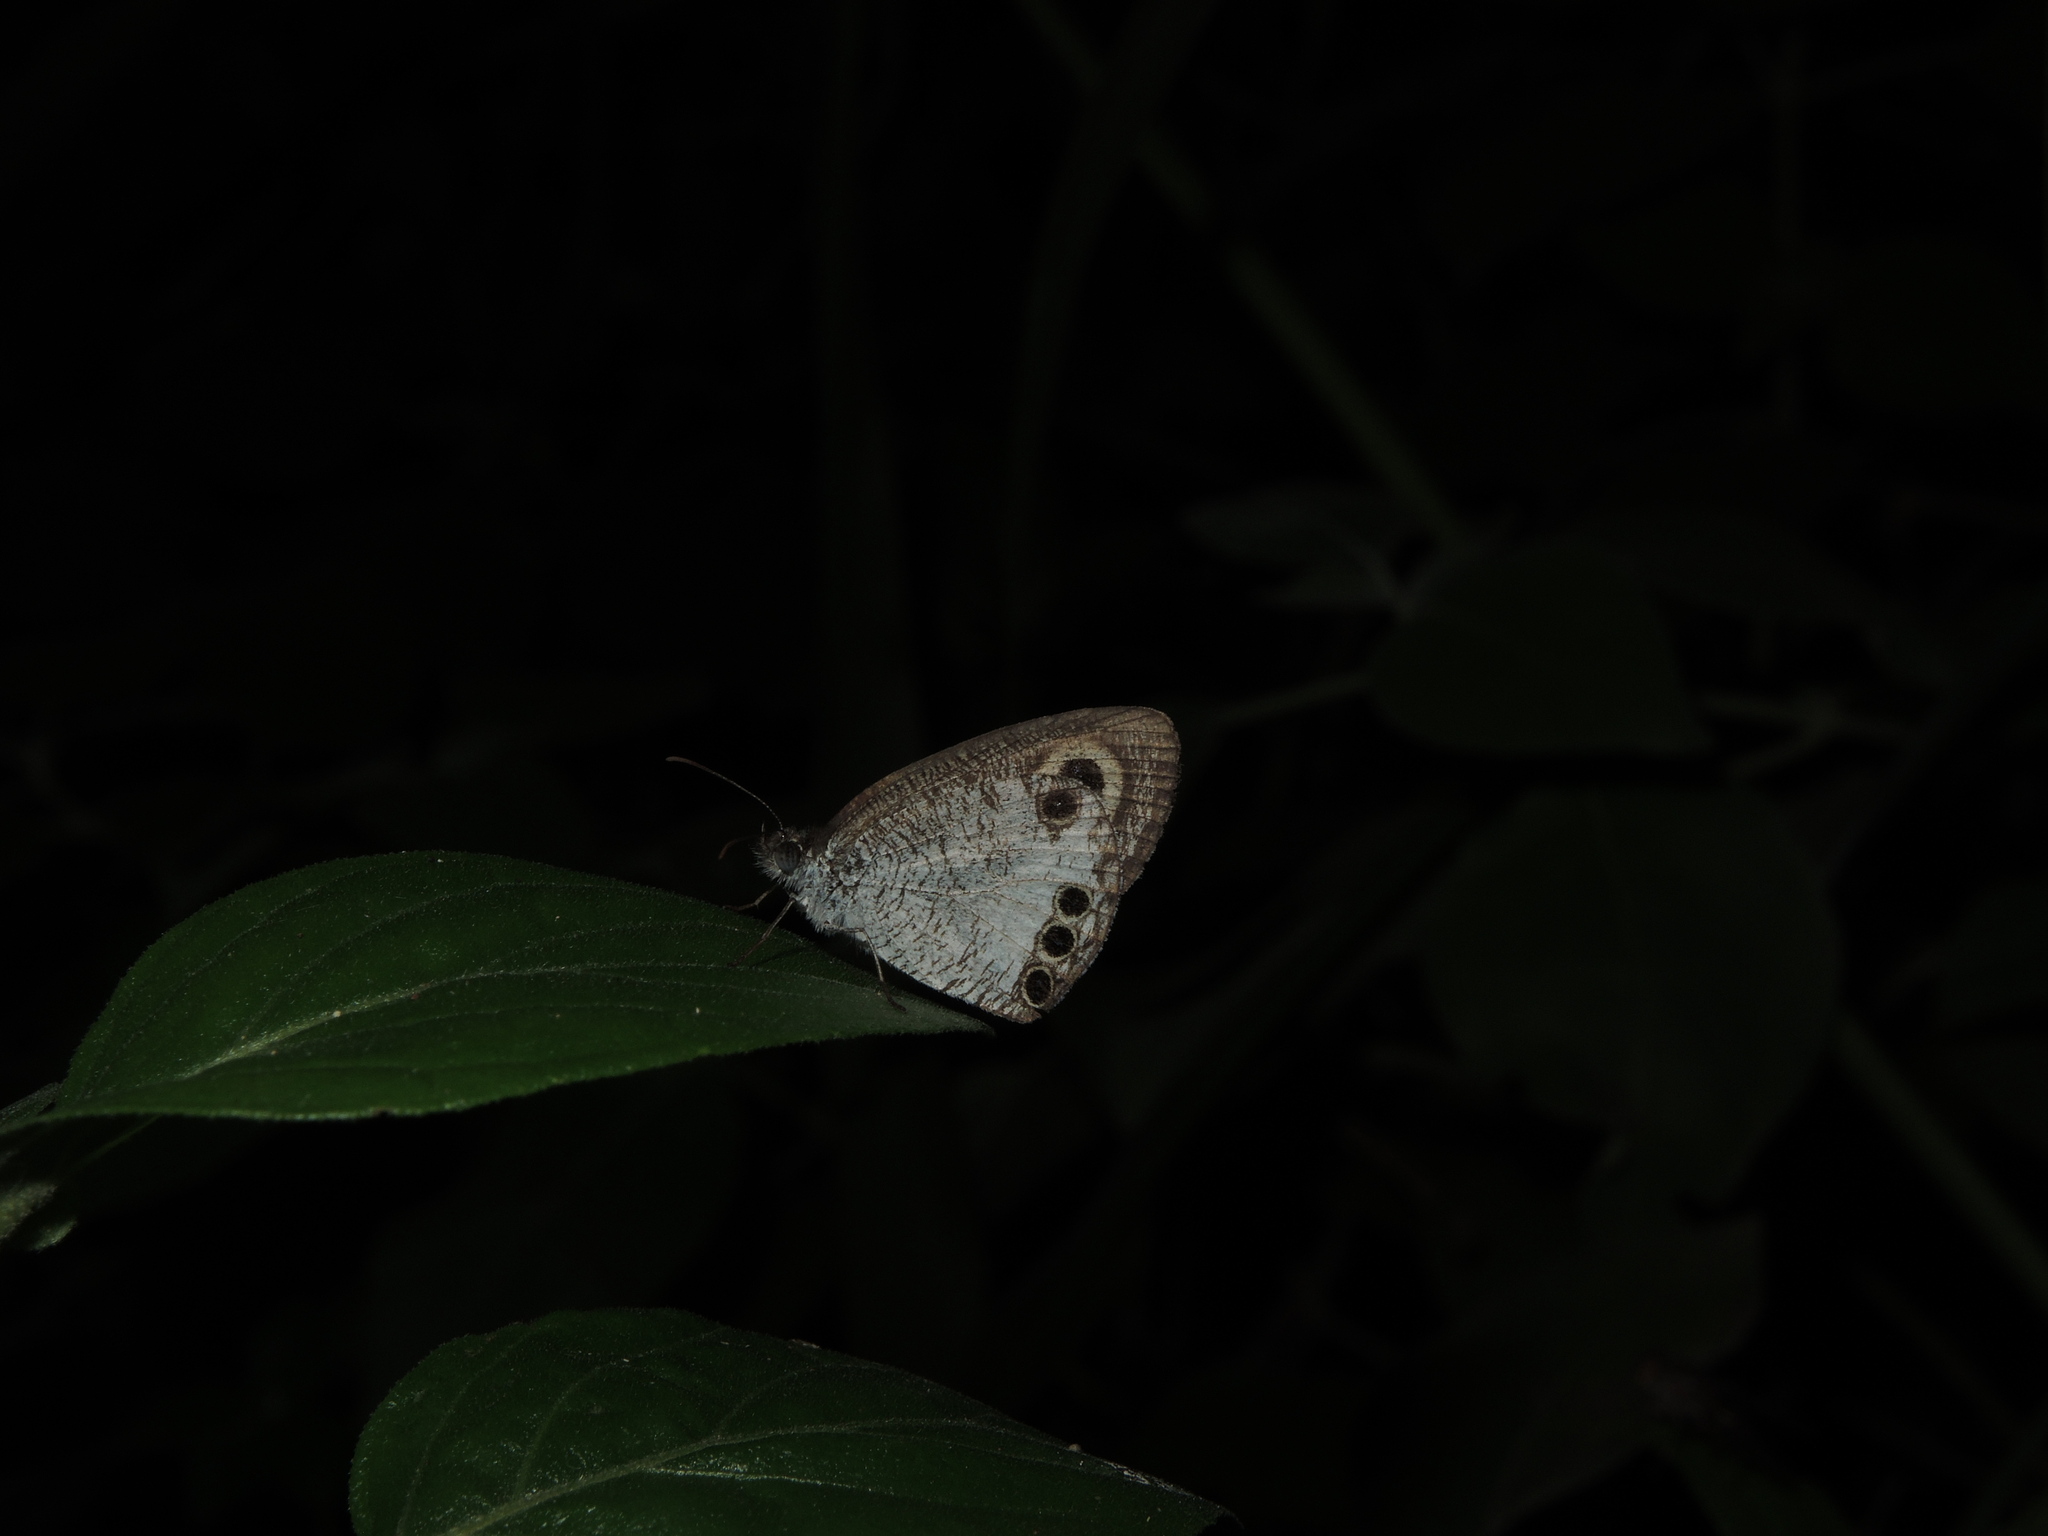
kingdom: Animalia
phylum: Arthropoda
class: Insecta
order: Lepidoptera
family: Nymphalidae
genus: Ypthima
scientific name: Ypthima ceylonica
